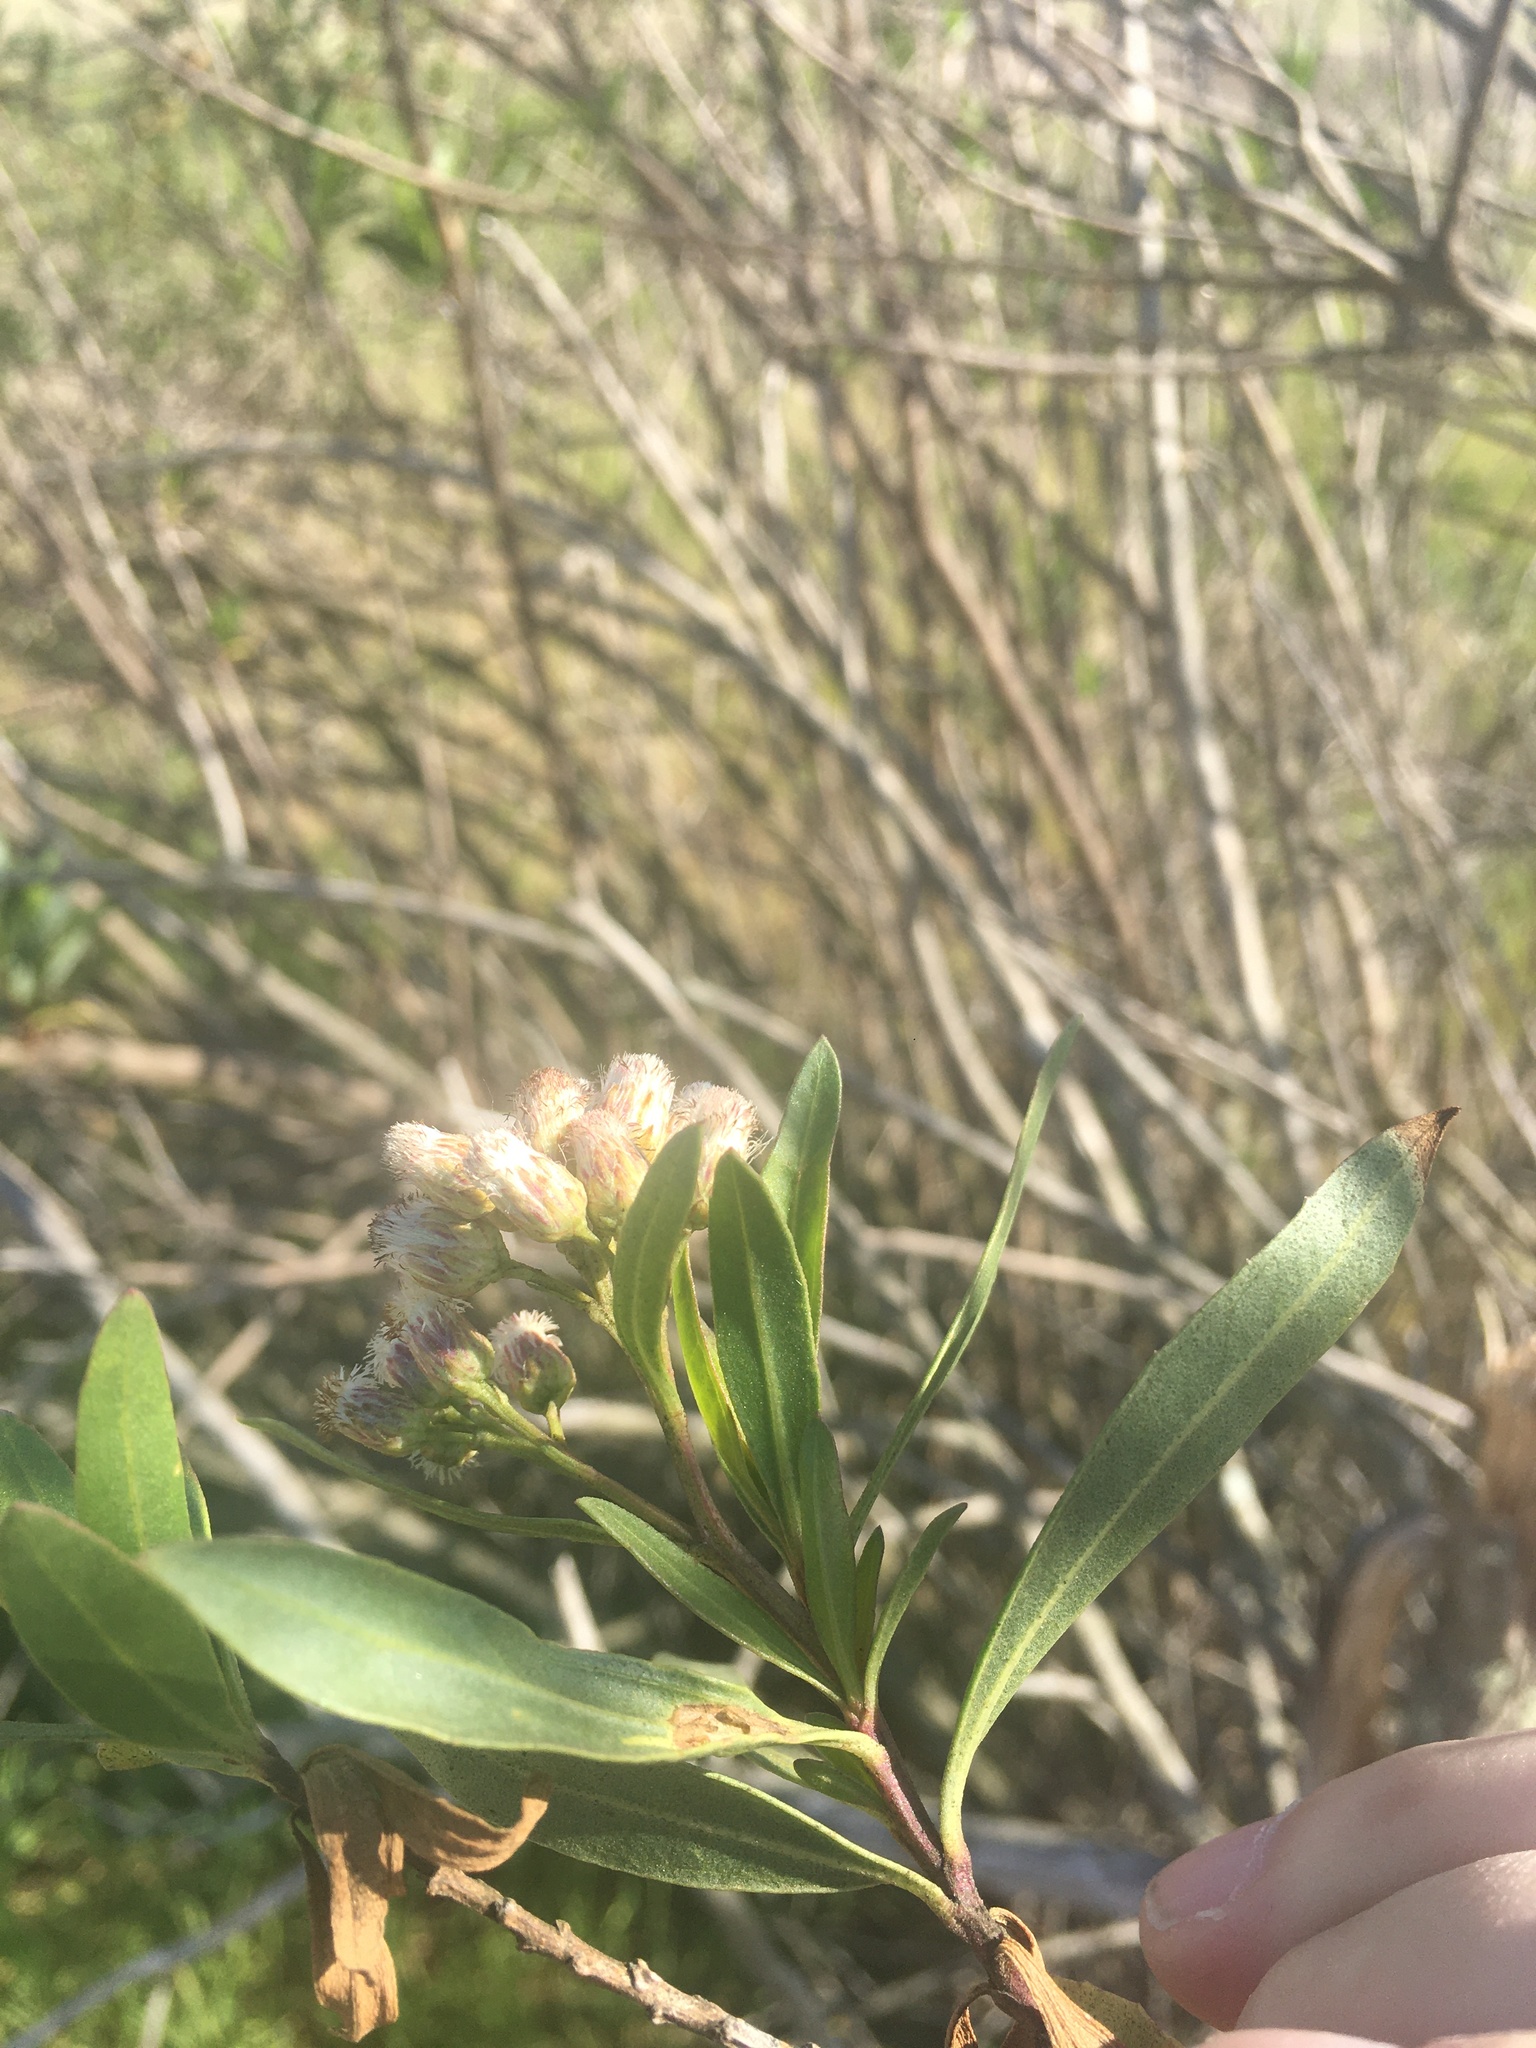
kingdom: Plantae
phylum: Tracheophyta
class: Magnoliopsida
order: Asterales
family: Asteraceae
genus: Baccharis
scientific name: Baccharis salicifolia
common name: Sticky baccharis
